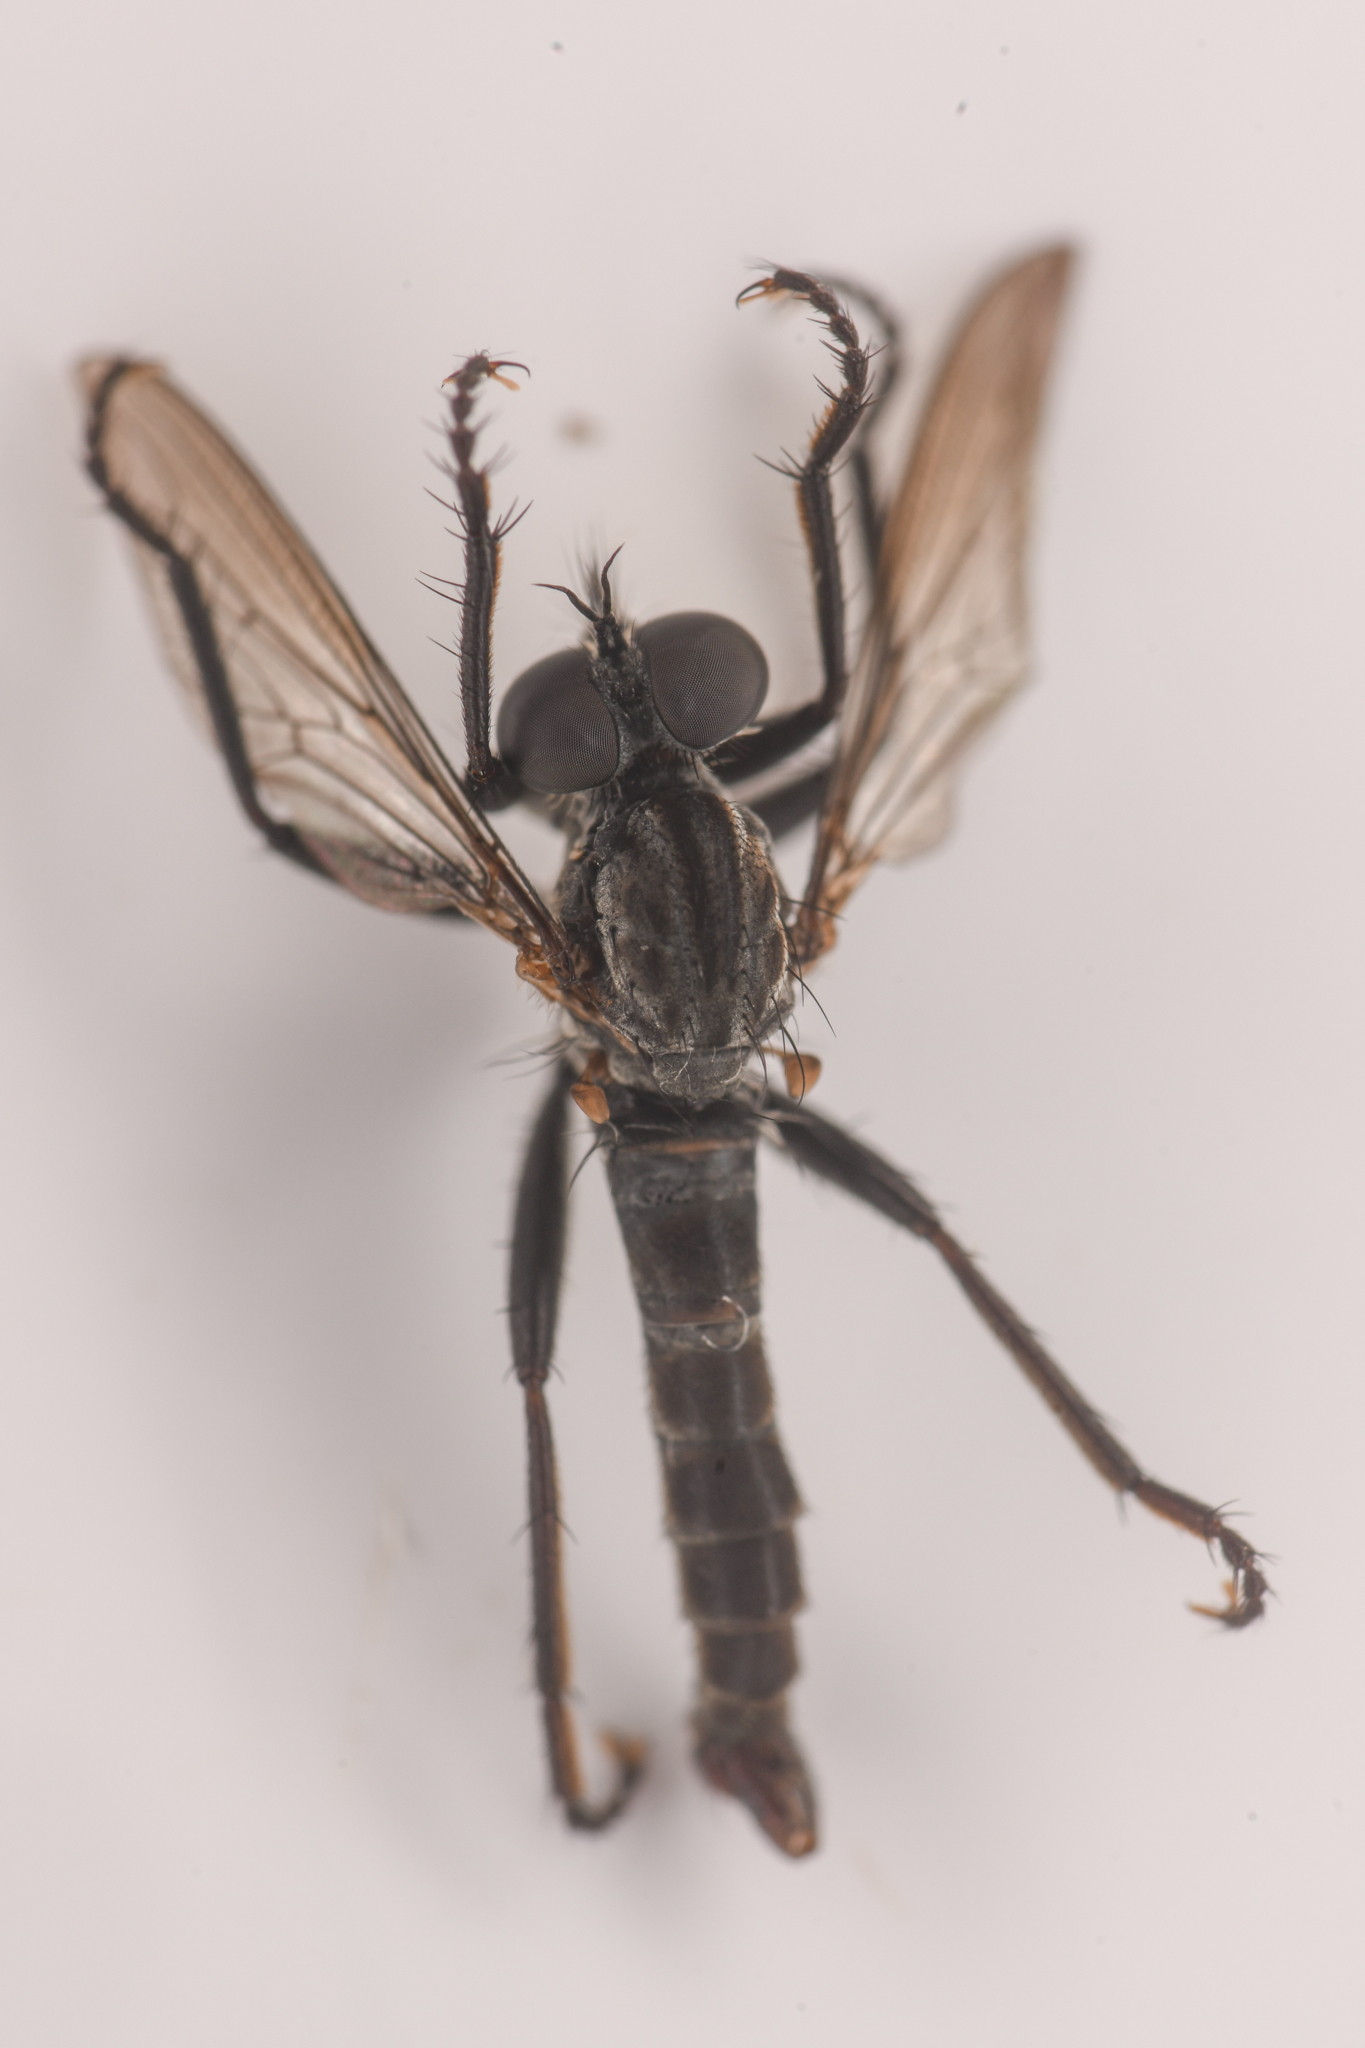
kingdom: Animalia
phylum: Arthropoda
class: Insecta
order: Diptera
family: Asilidae
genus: Rhadiurgus
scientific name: Rhadiurgus variabilis
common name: Northern robberfly
